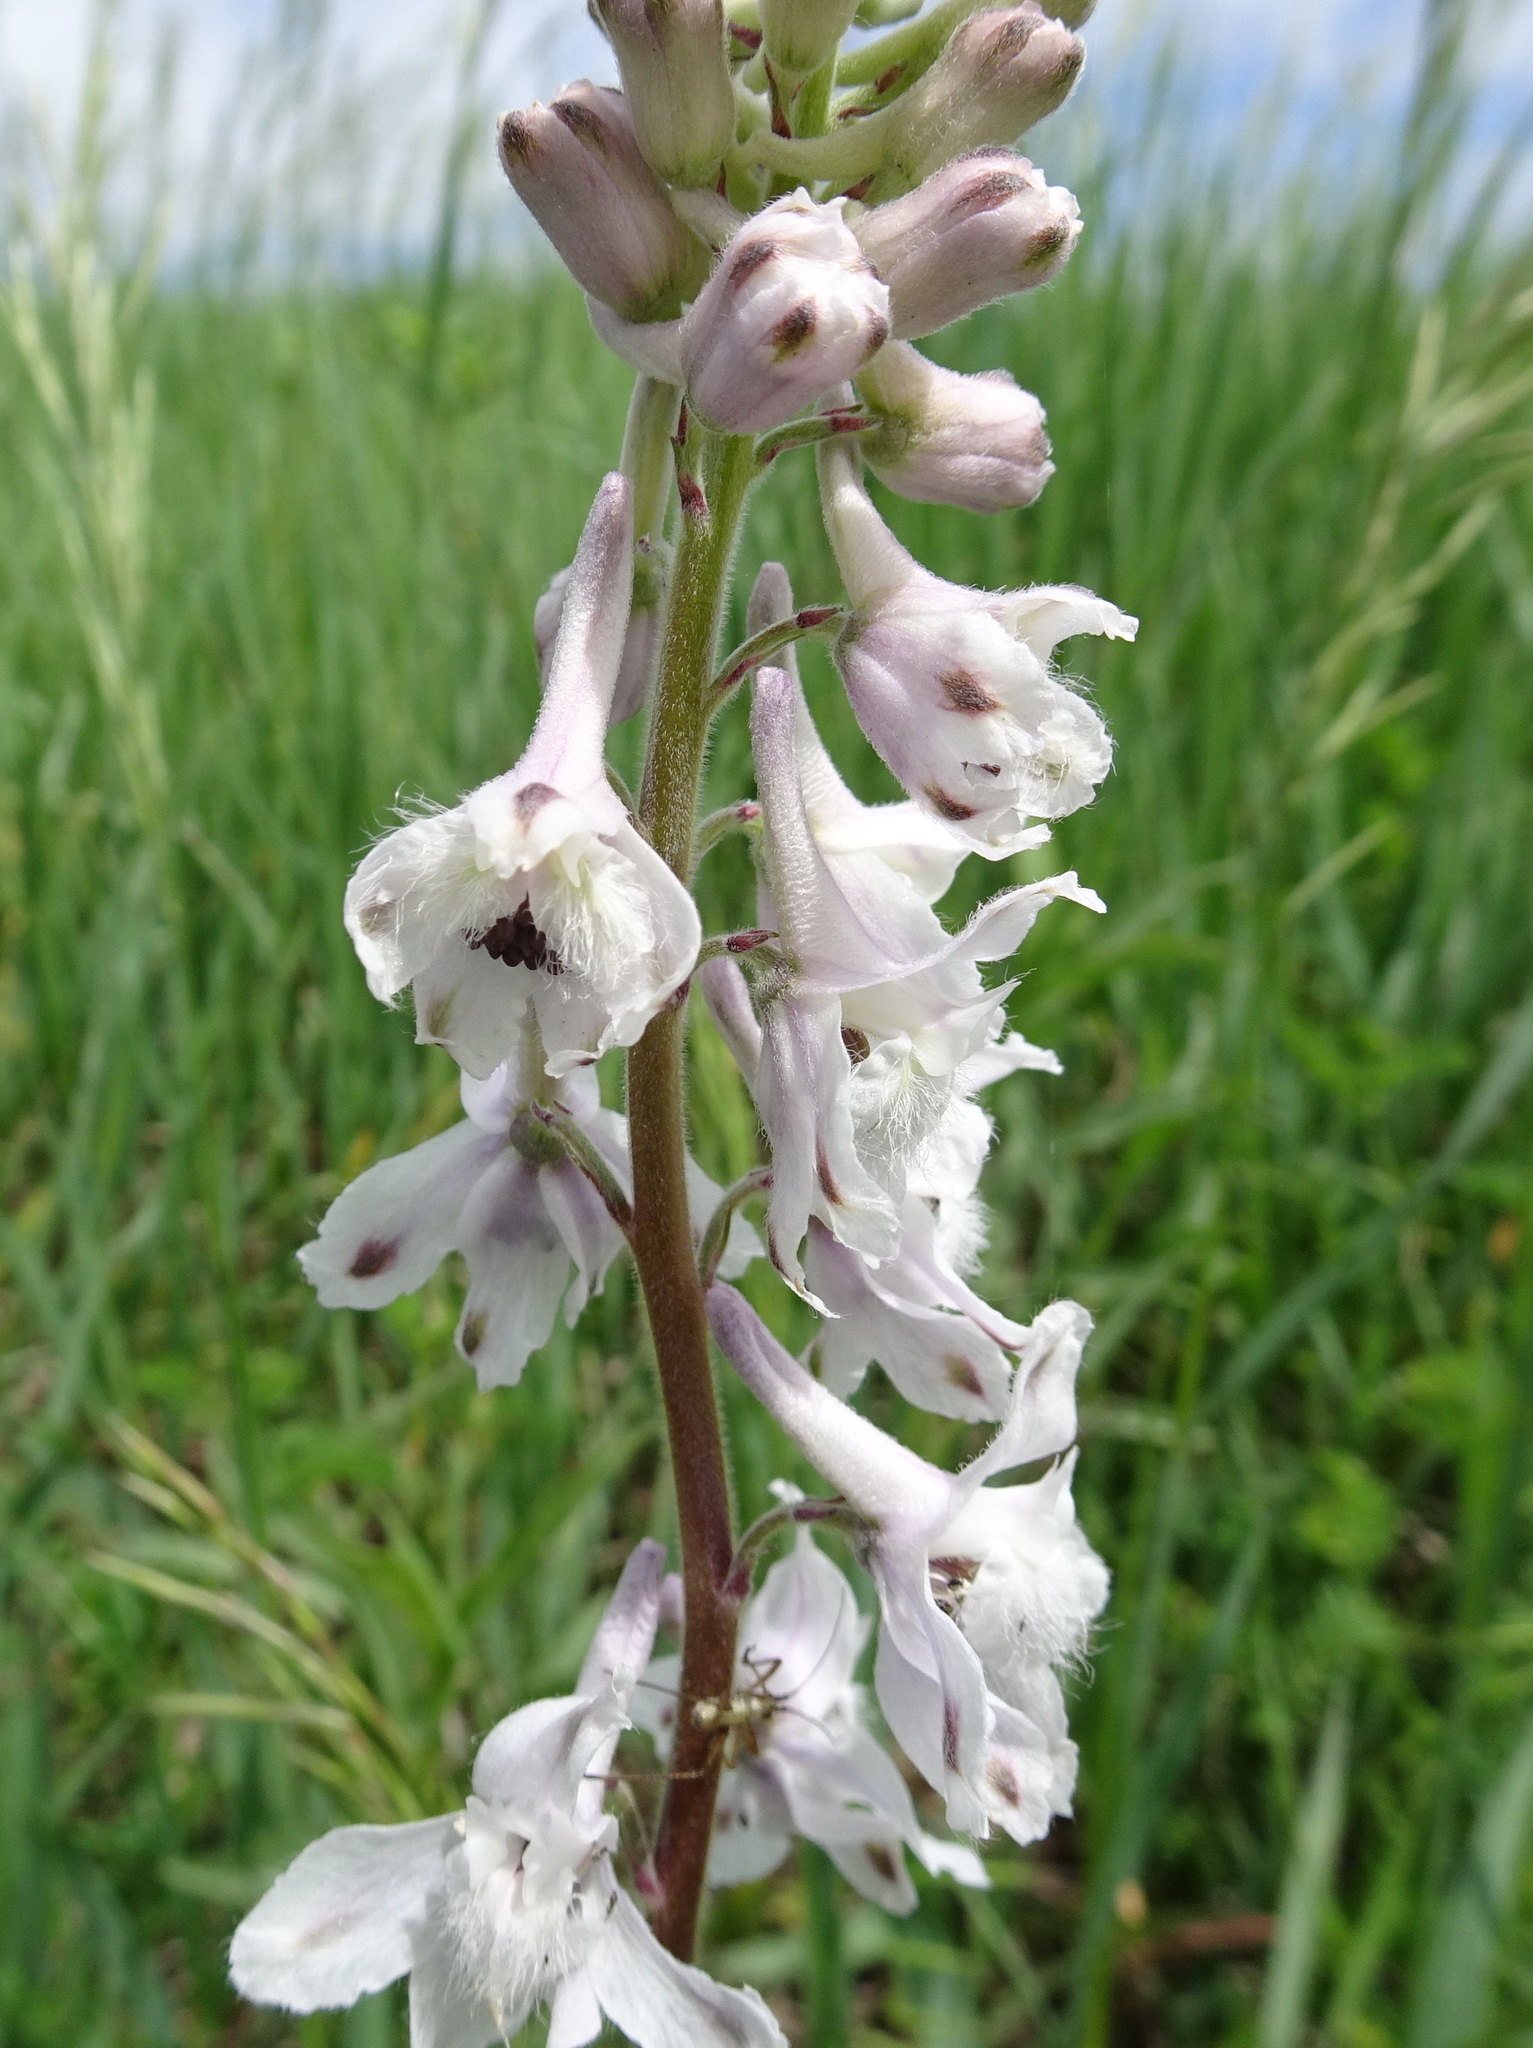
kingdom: Plantae
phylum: Tracheophyta
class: Magnoliopsida
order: Ranunculales
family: Ranunculaceae
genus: Delphinium
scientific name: Delphinium carolinianum
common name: Carolina larkspur
